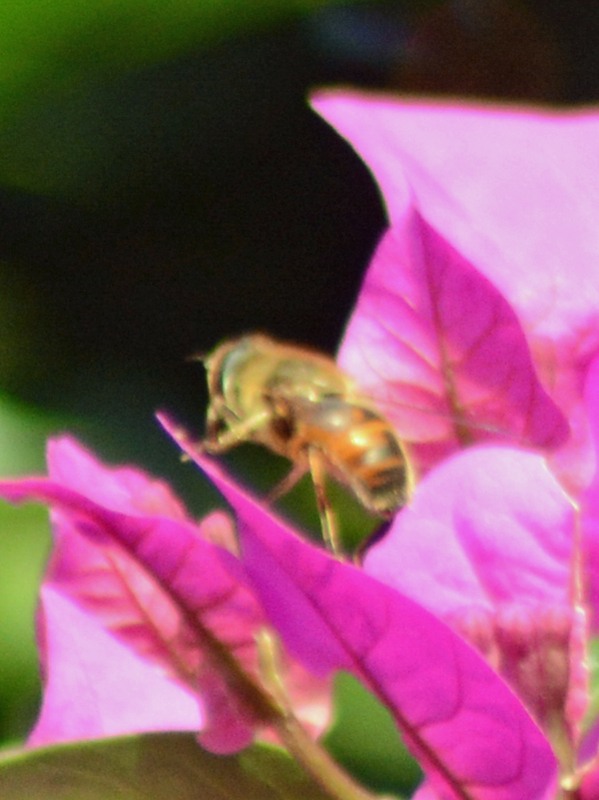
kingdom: Animalia
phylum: Arthropoda
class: Insecta
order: Diptera
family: Syrphidae
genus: Eristalis
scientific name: Eristalis tenax
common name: Drone fly
